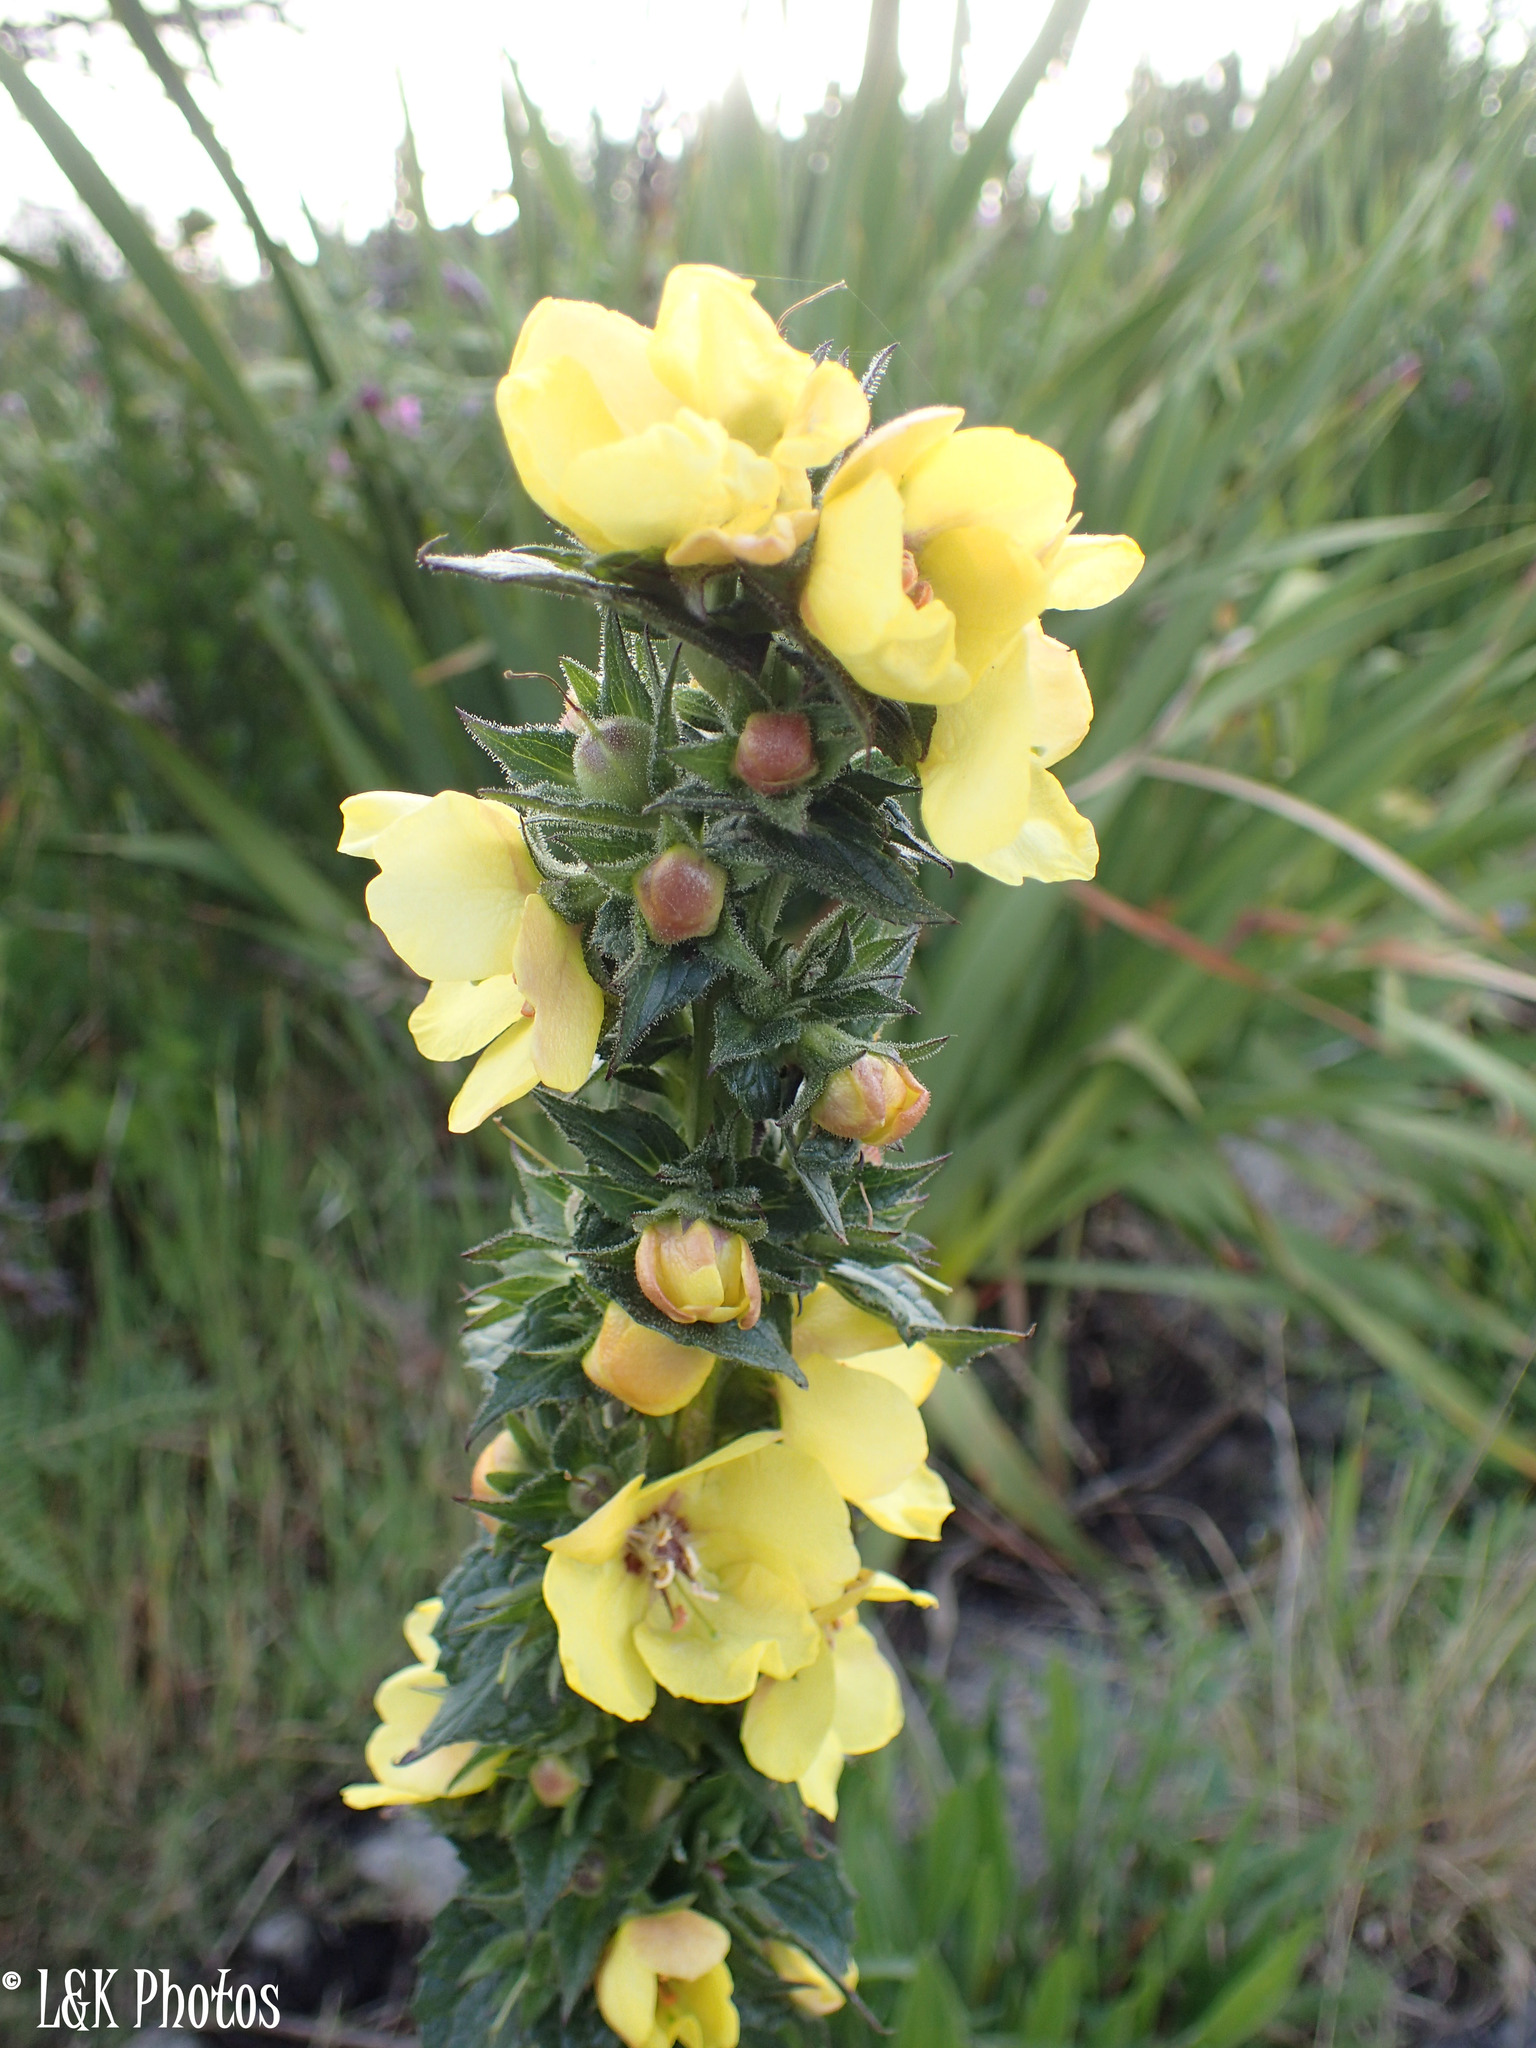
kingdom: Plantae
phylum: Tracheophyta
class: Magnoliopsida
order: Lamiales
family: Scrophulariaceae
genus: Verbascum
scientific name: Verbascum virgatum
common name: Twiggy mullein
